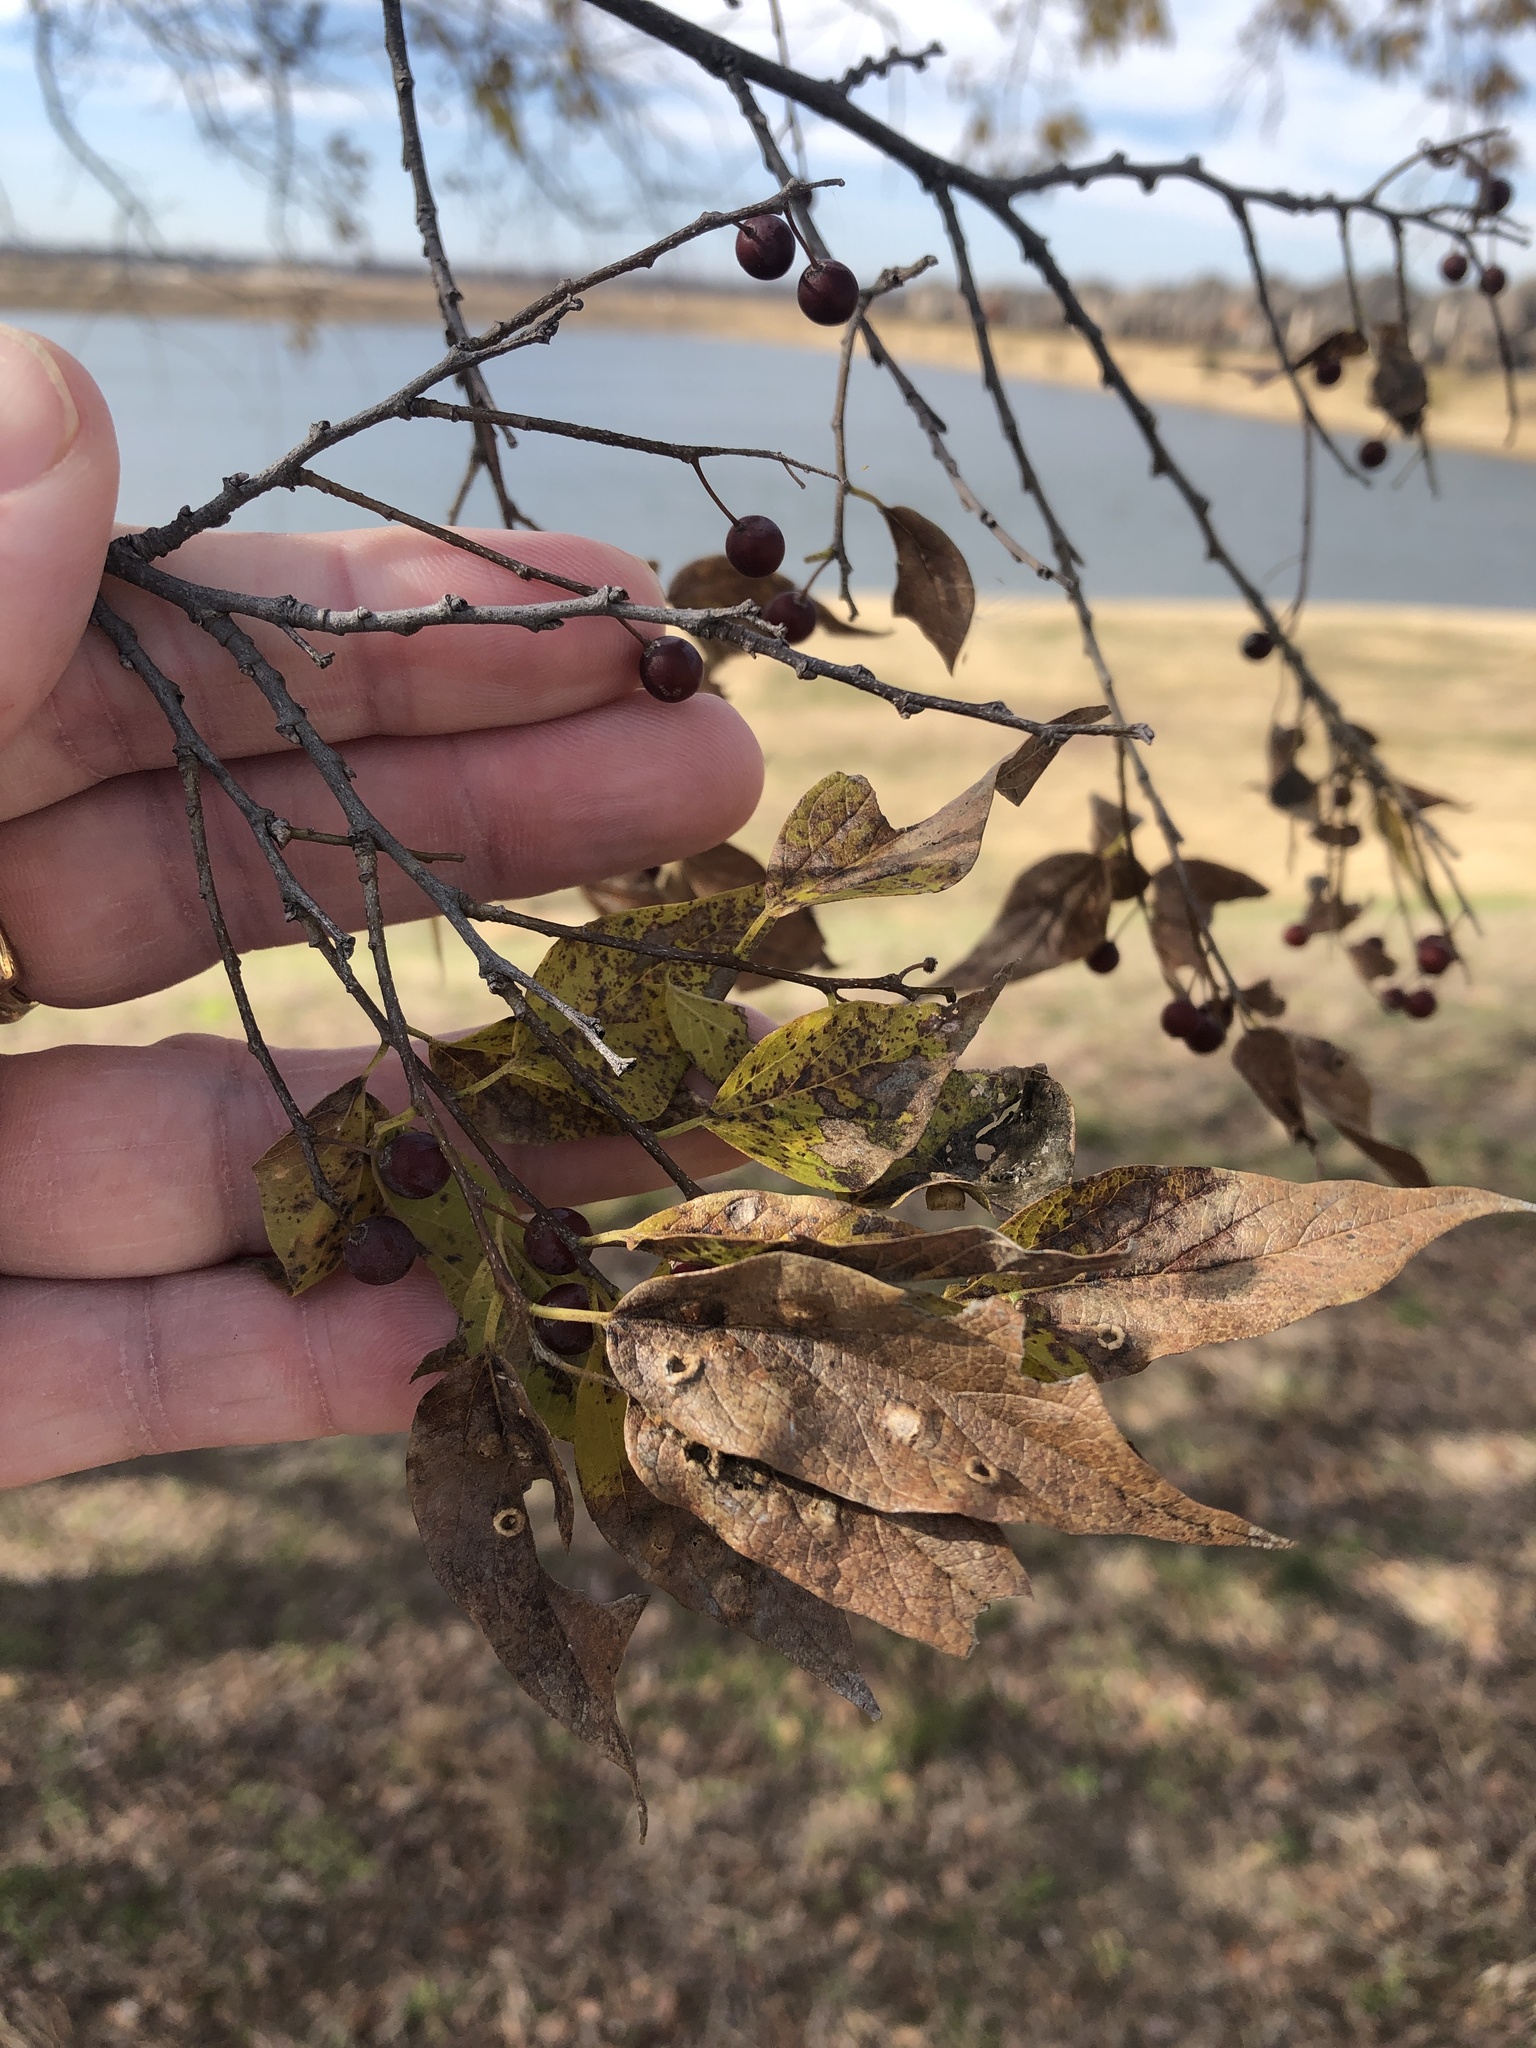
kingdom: Plantae
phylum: Tracheophyta
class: Magnoliopsida
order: Rosales
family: Cannabaceae
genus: Celtis
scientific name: Celtis laevigata
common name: Sugarberry
